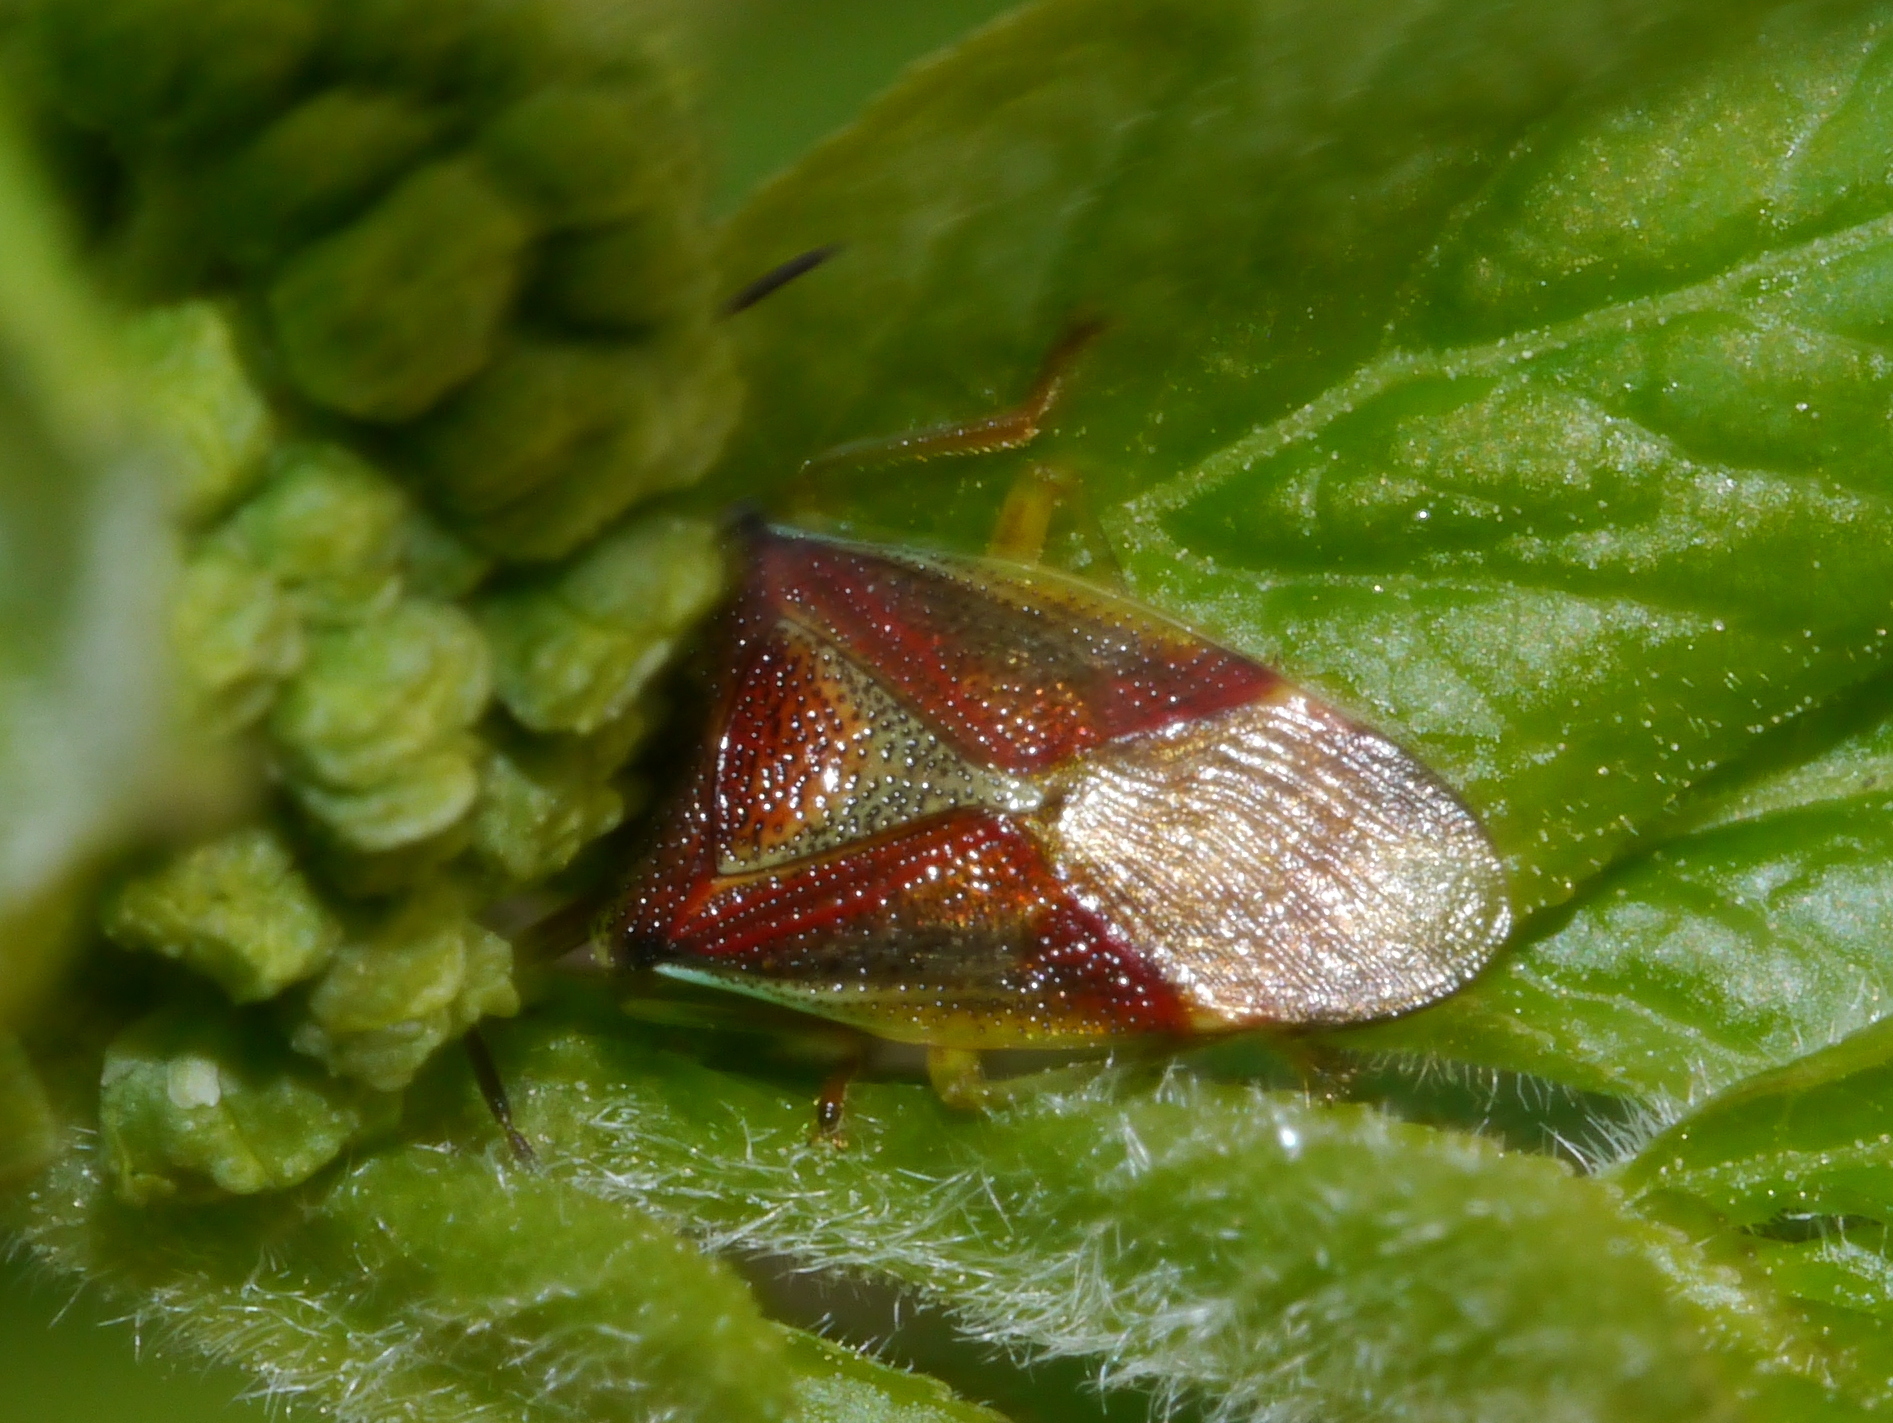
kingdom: Animalia
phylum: Arthropoda
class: Insecta
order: Hemiptera
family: Acanthosomatidae
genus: Elasmostethus
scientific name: Elasmostethus interstinctus
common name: Birch shieldbug
